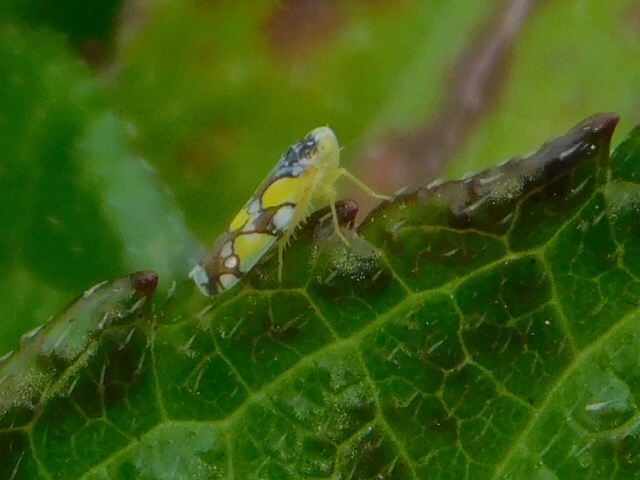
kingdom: Animalia
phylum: Arthropoda
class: Insecta
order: Hemiptera
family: Cicadellidae
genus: Protalebrella
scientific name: Protalebrella brasiliensis
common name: Brasilian leafhopper
